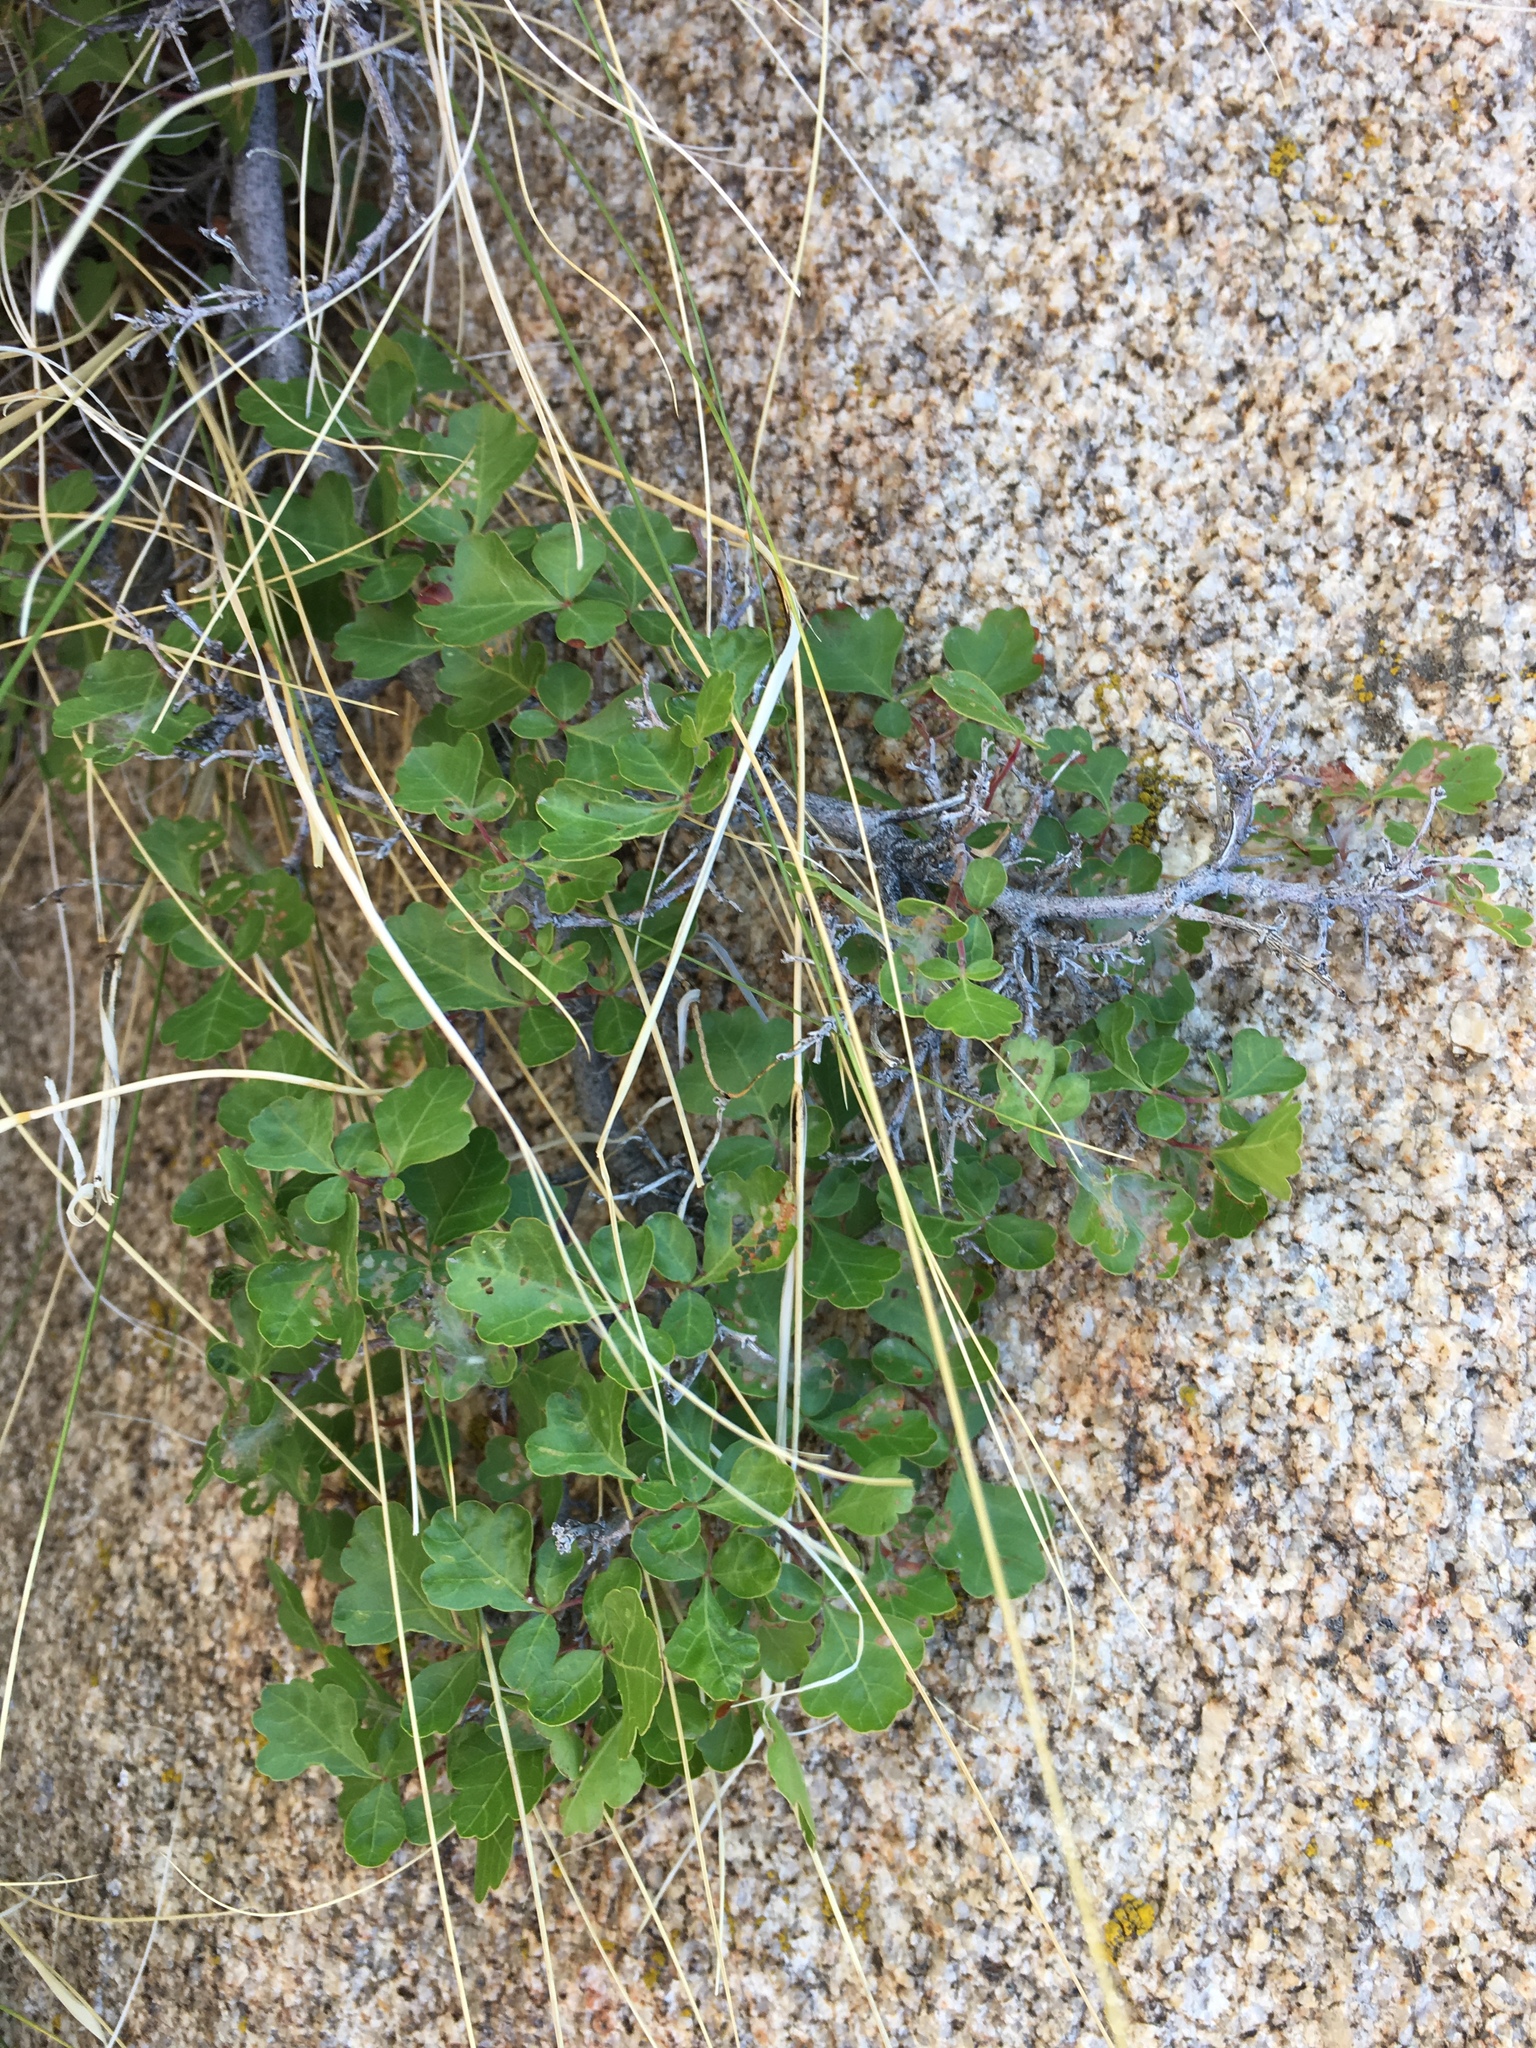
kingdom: Plantae
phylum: Tracheophyta
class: Magnoliopsida
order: Sapindales
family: Anacardiaceae
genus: Rhus
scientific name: Rhus aromatica
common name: Aromatic sumac
